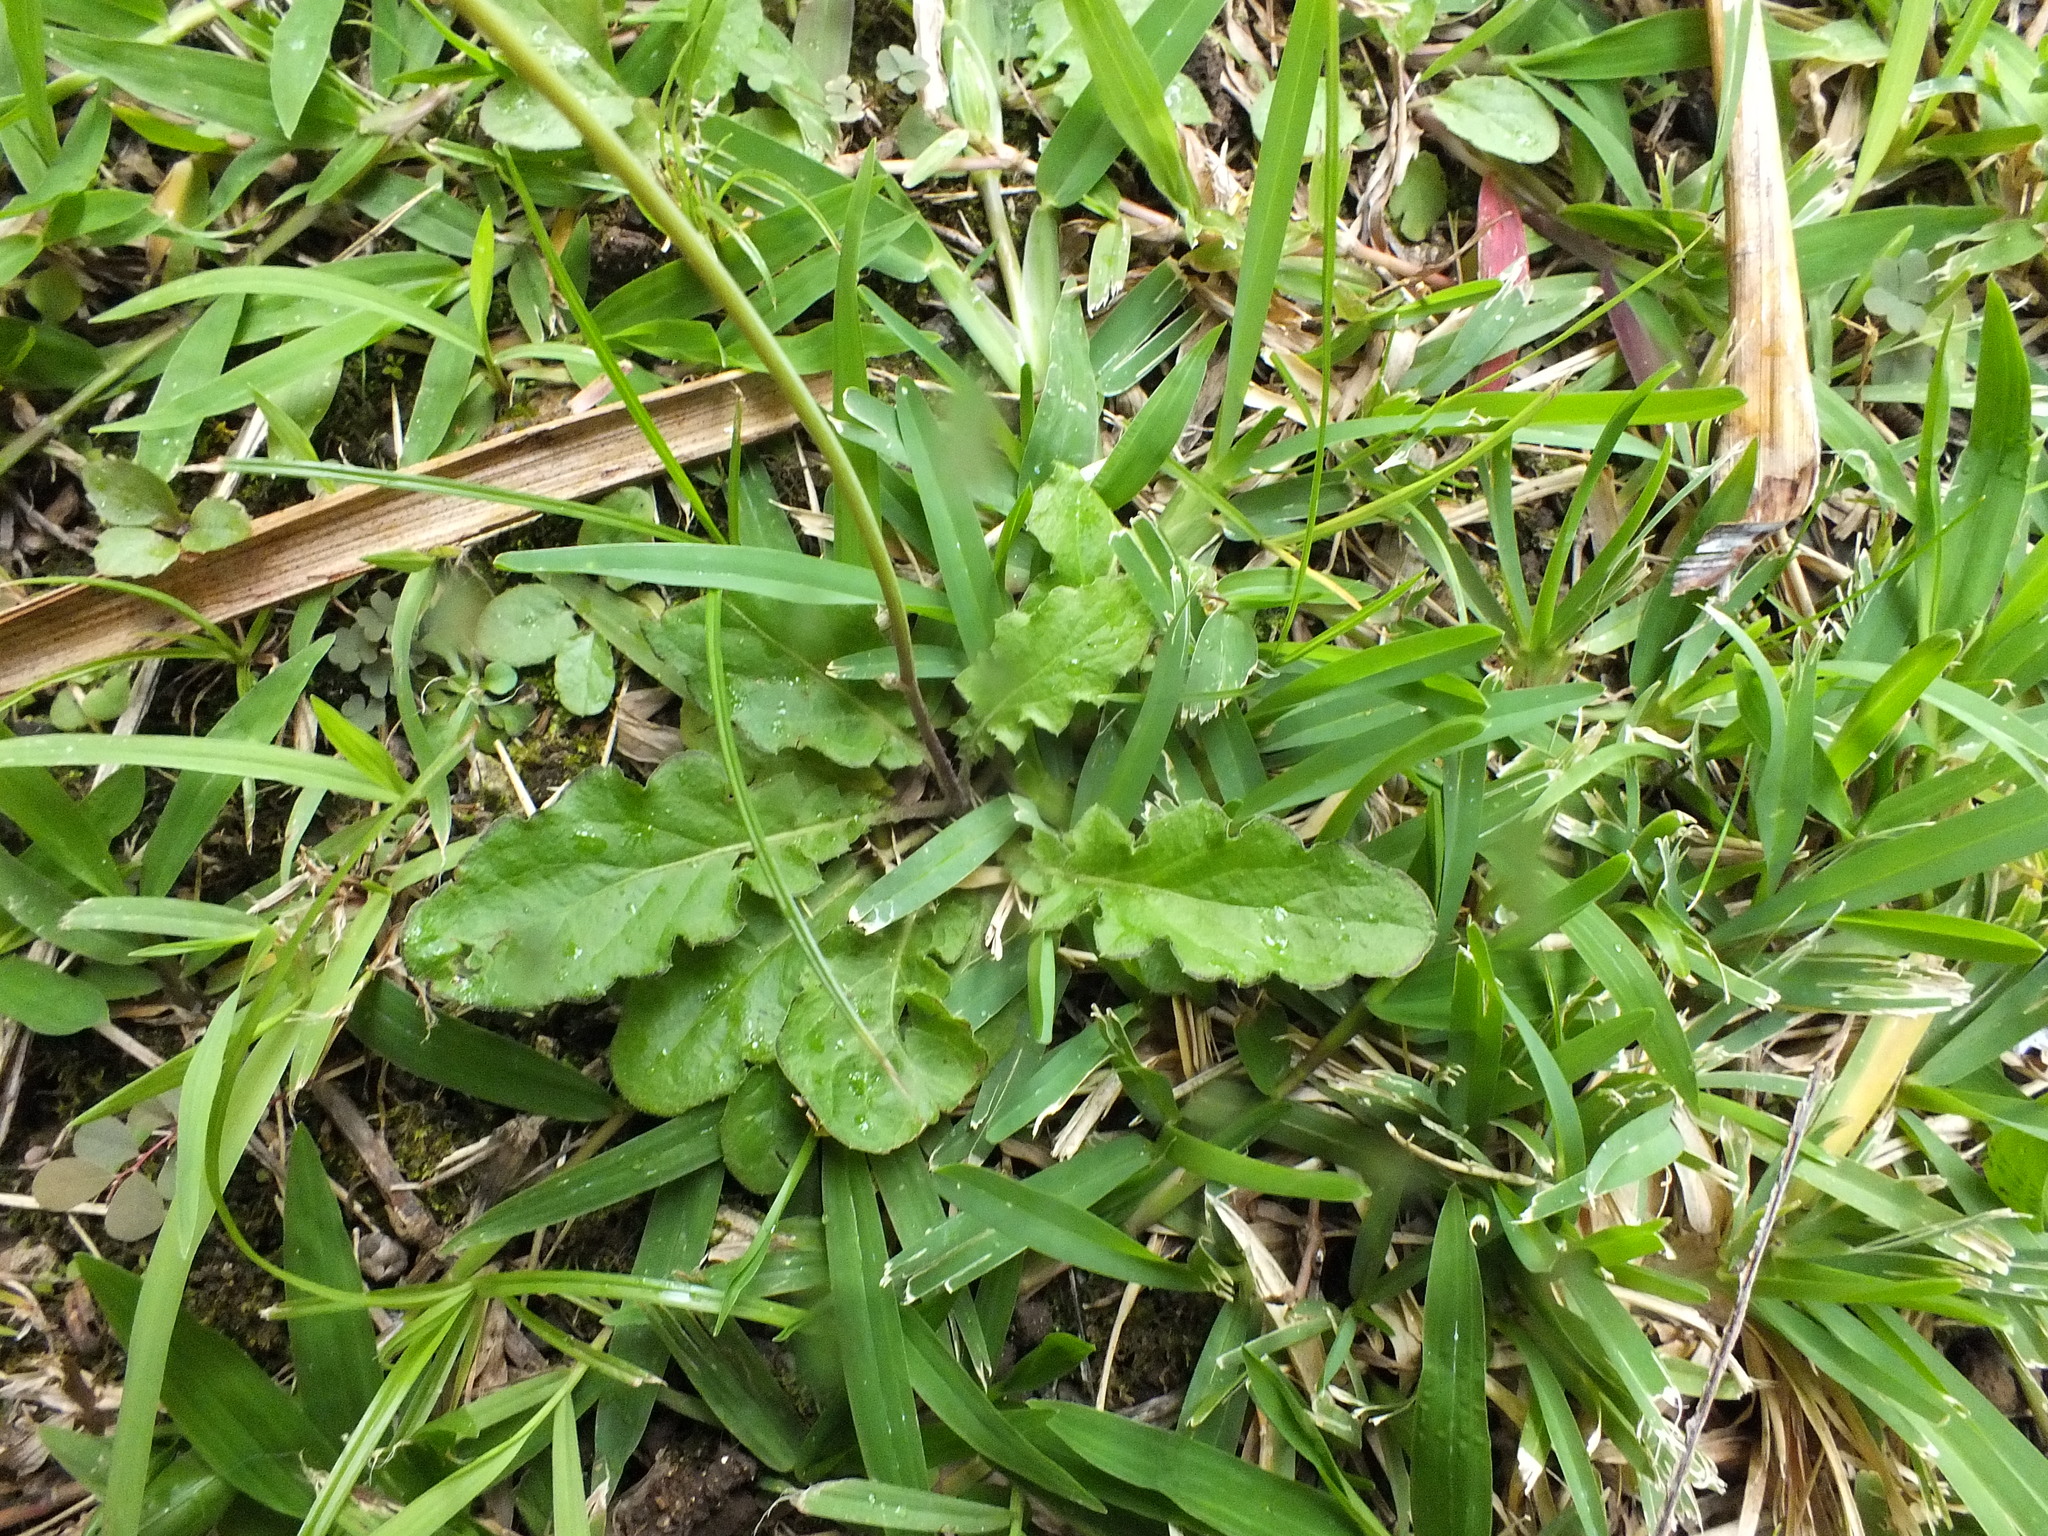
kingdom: Plantae
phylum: Tracheophyta
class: Magnoliopsida
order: Asterales
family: Asteraceae
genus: Youngia
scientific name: Youngia japonica
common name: Oriental false hawksbeard
